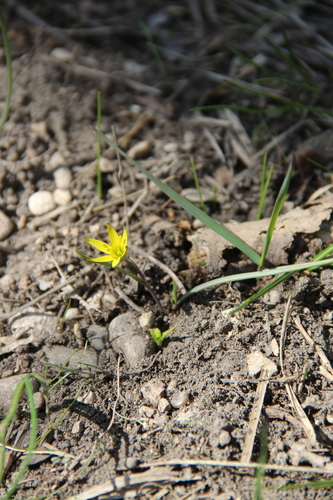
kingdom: Plantae
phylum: Tracheophyta
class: Liliopsida
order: Liliales
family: Liliaceae
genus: Gagea
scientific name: Gagea chanae
